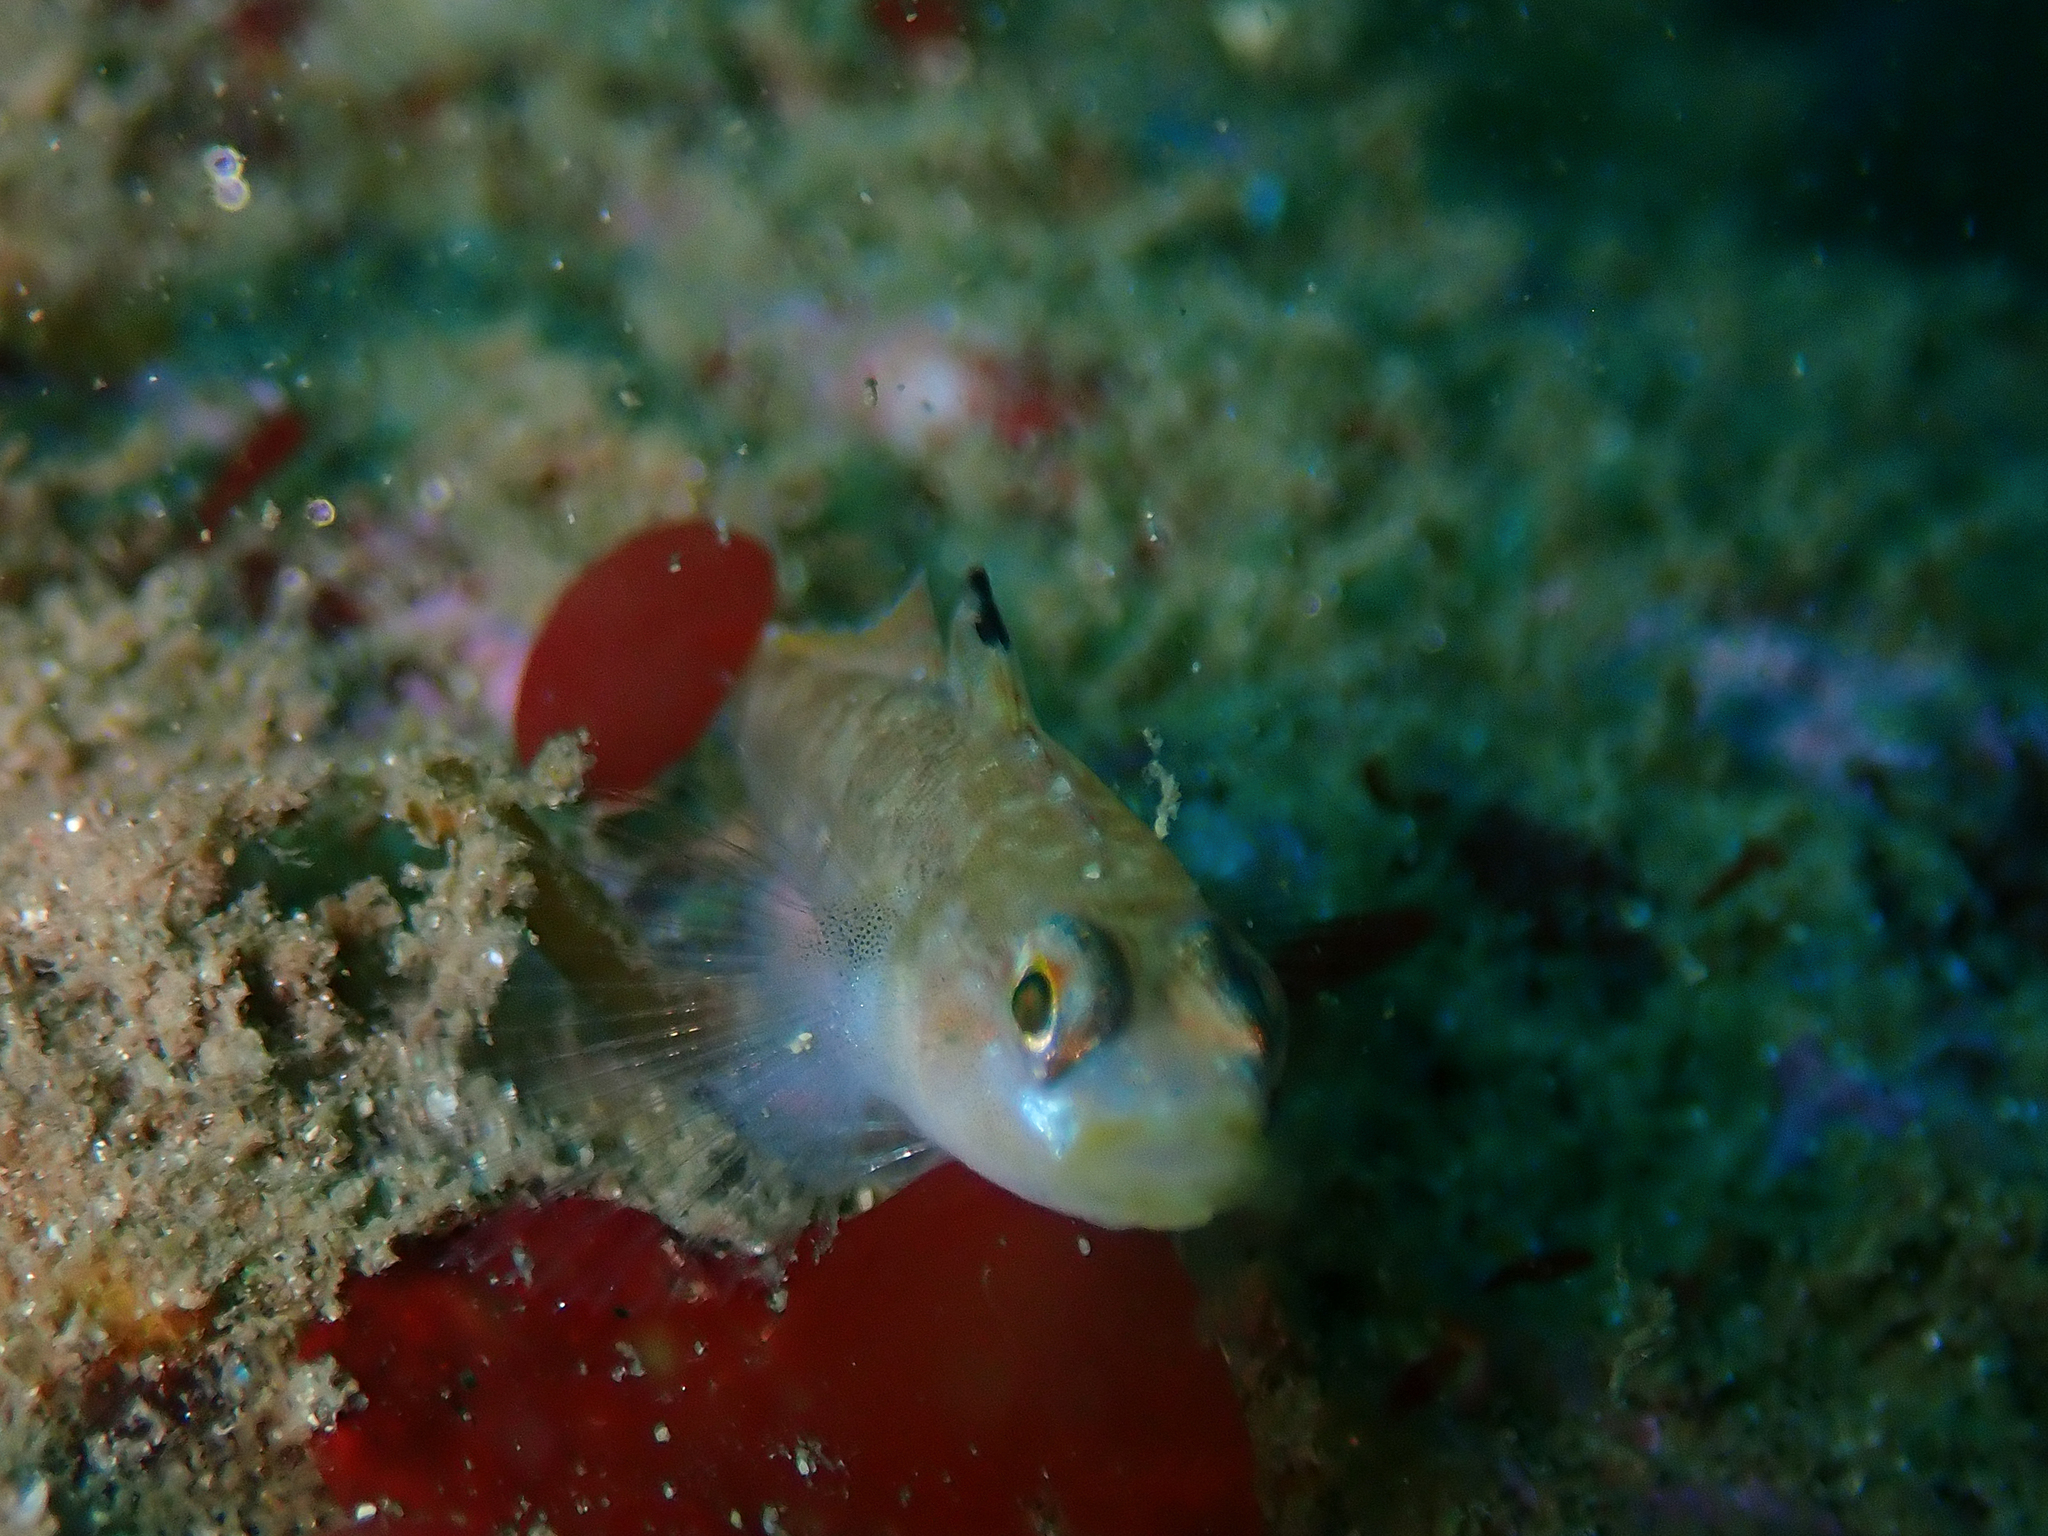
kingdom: Animalia
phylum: Chordata
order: Perciformes
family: Gobiidae
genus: Rhinogobiops
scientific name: Rhinogobiops nicholsii
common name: Blackeye goby
